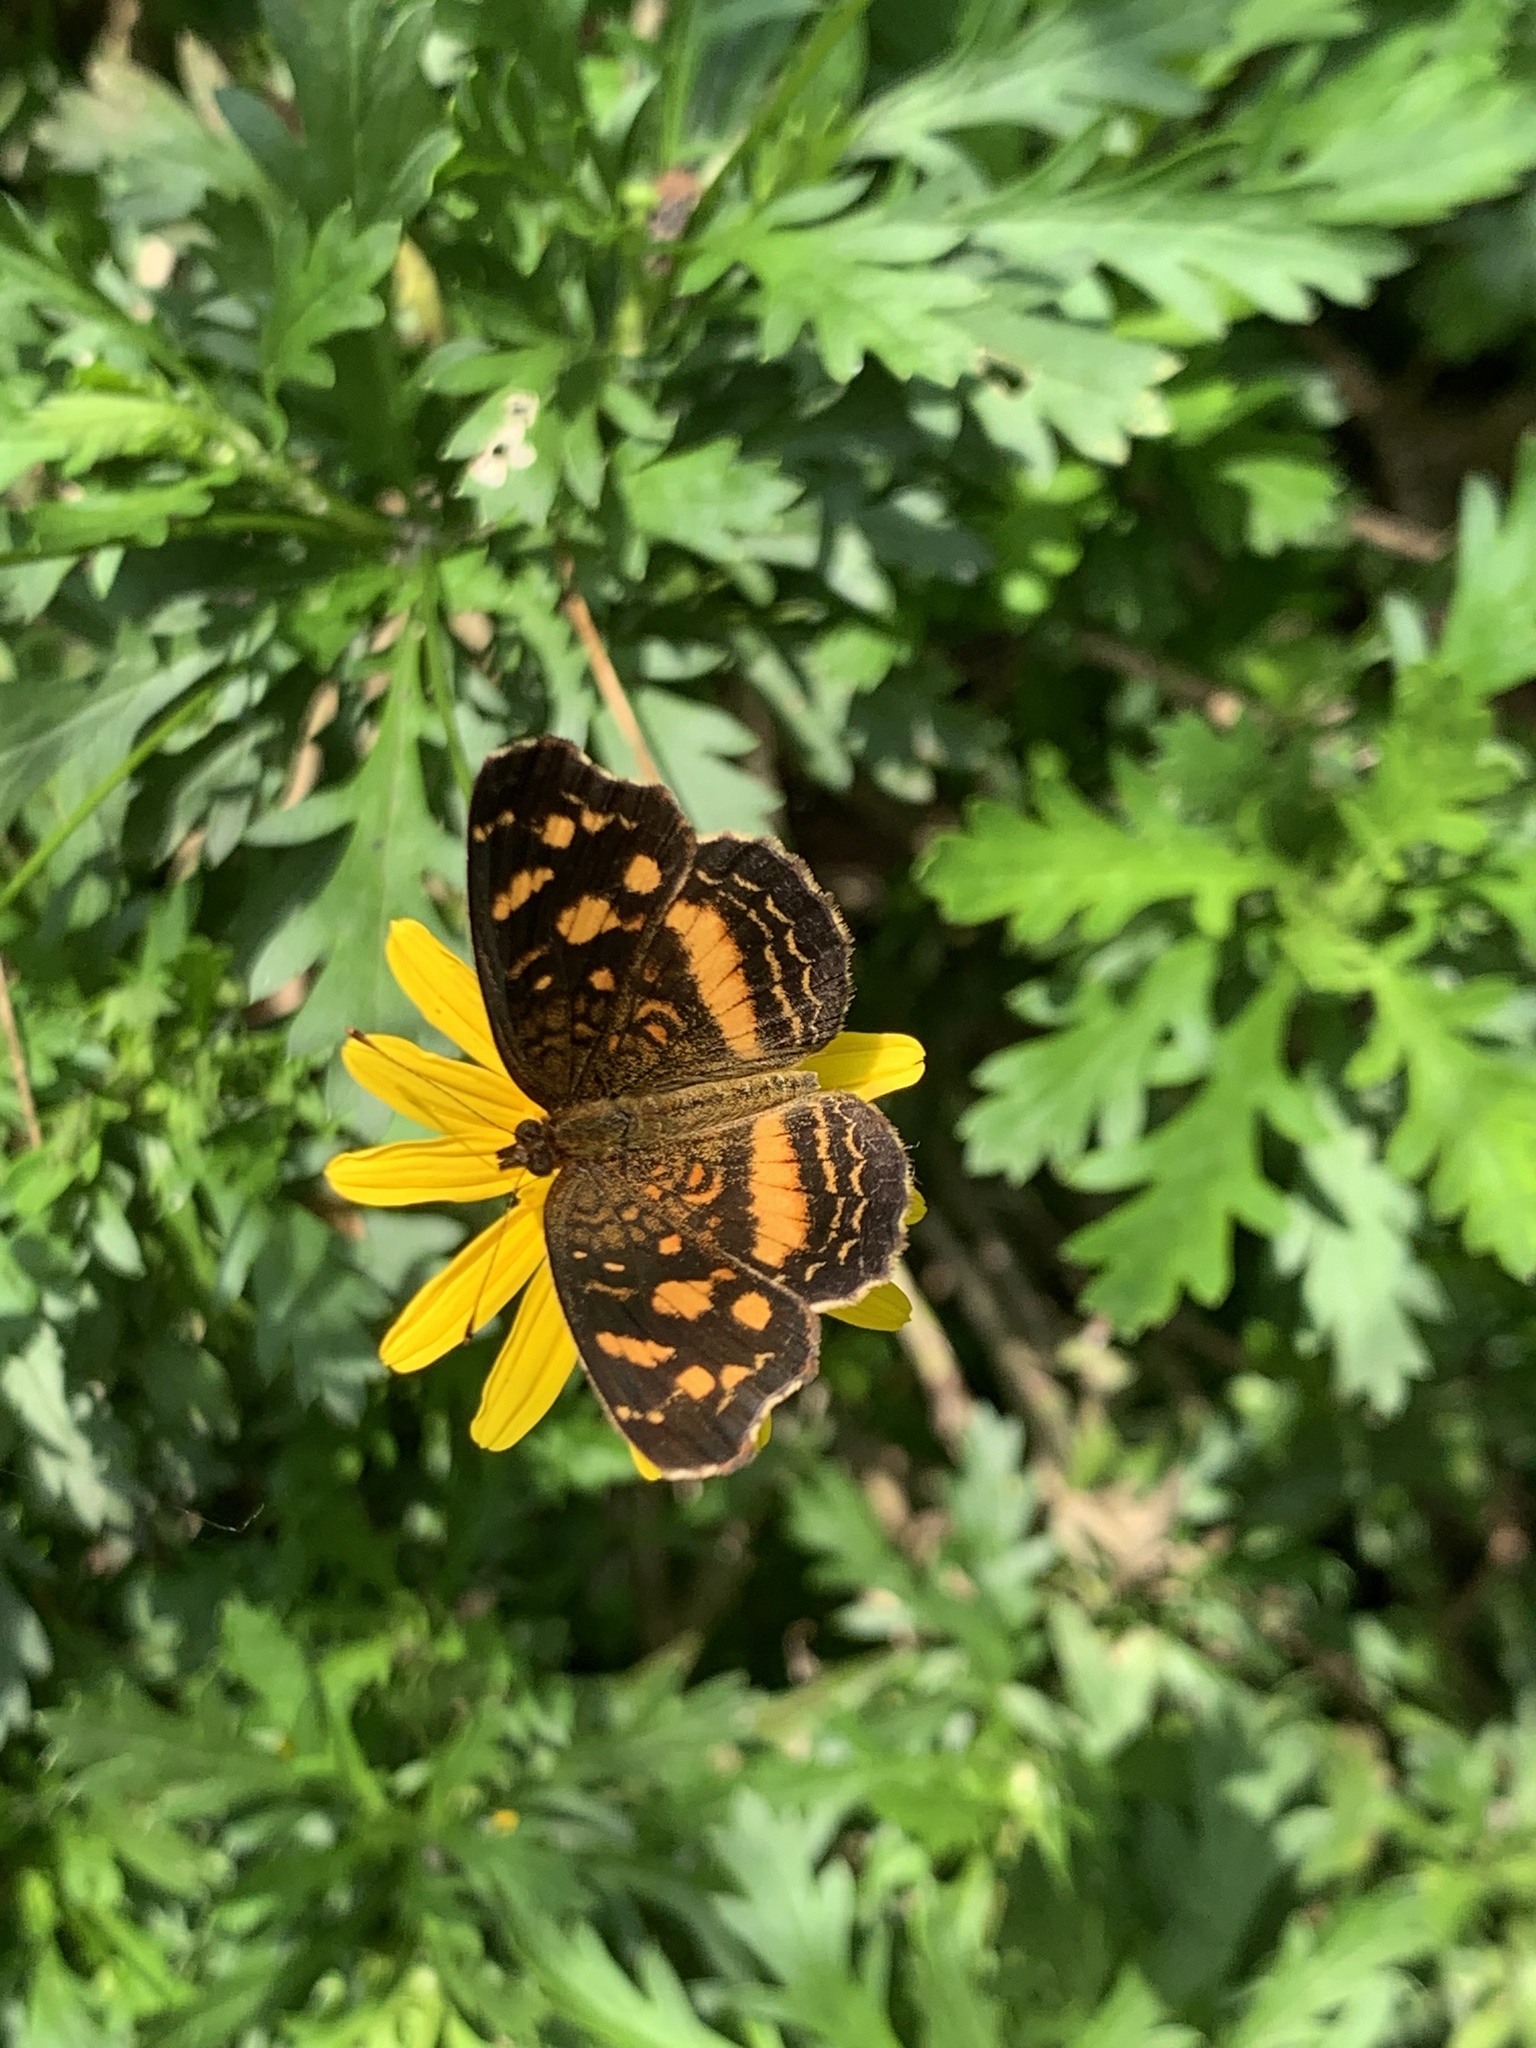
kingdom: Animalia
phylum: Arthropoda
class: Insecta
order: Lepidoptera
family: Nymphalidae
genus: Anthanassa
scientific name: Anthanassa drusilla
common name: Orange-patched crescent
